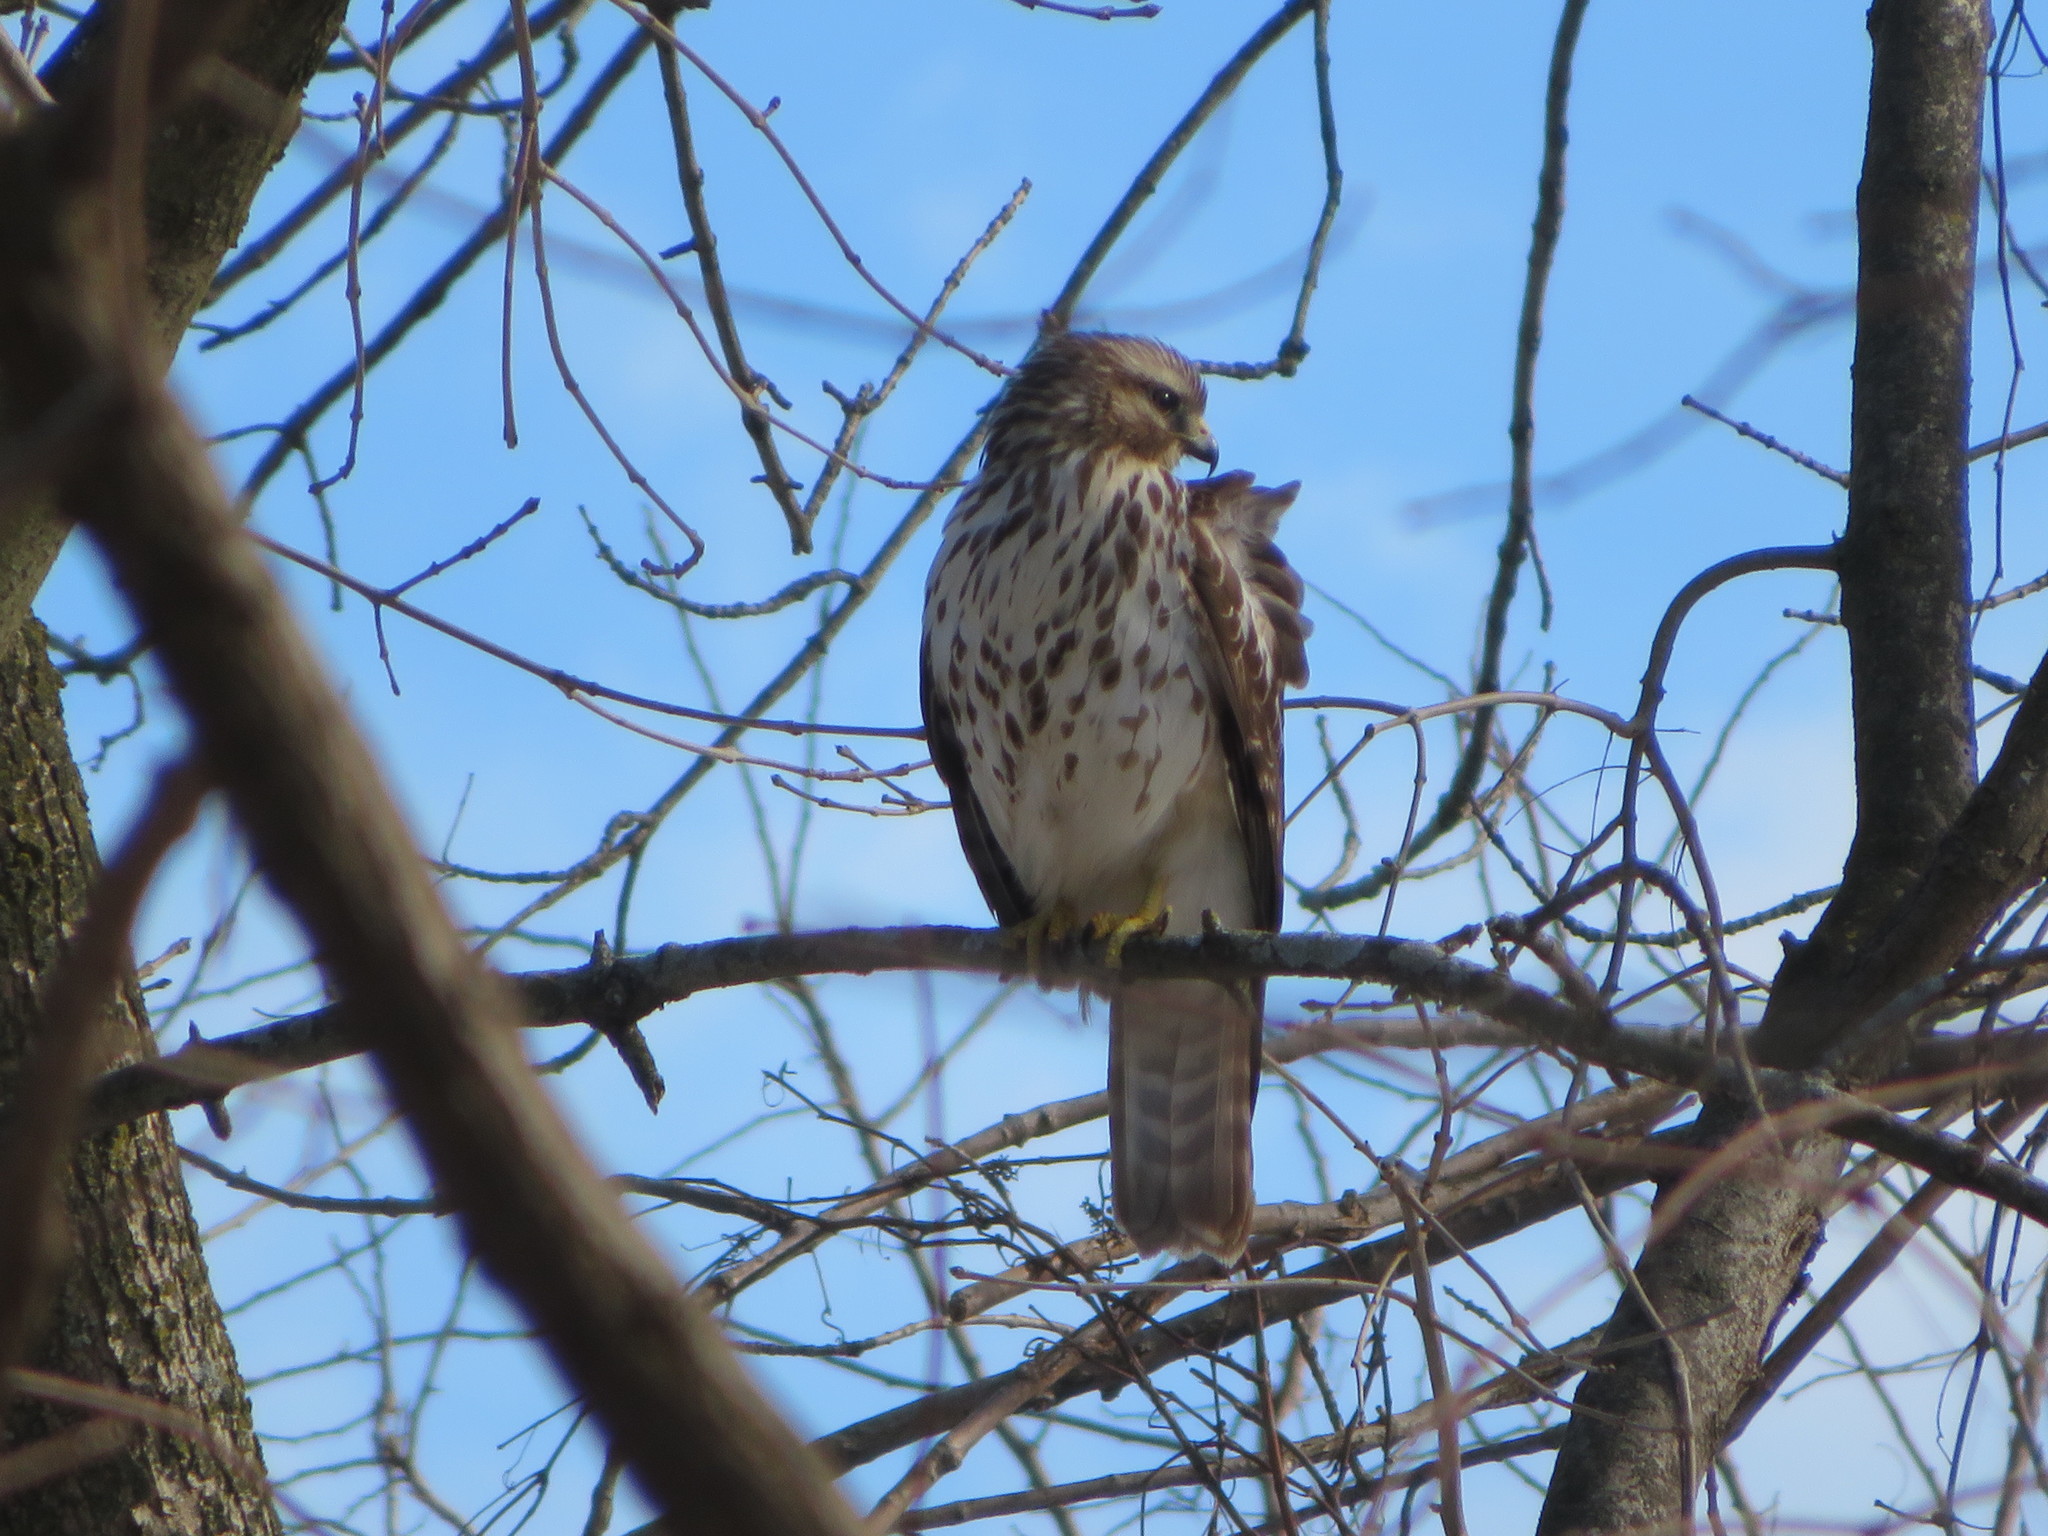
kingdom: Animalia
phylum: Chordata
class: Aves
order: Accipitriformes
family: Accipitridae
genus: Buteo
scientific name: Buteo lineatus
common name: Red-shouldered hawk
